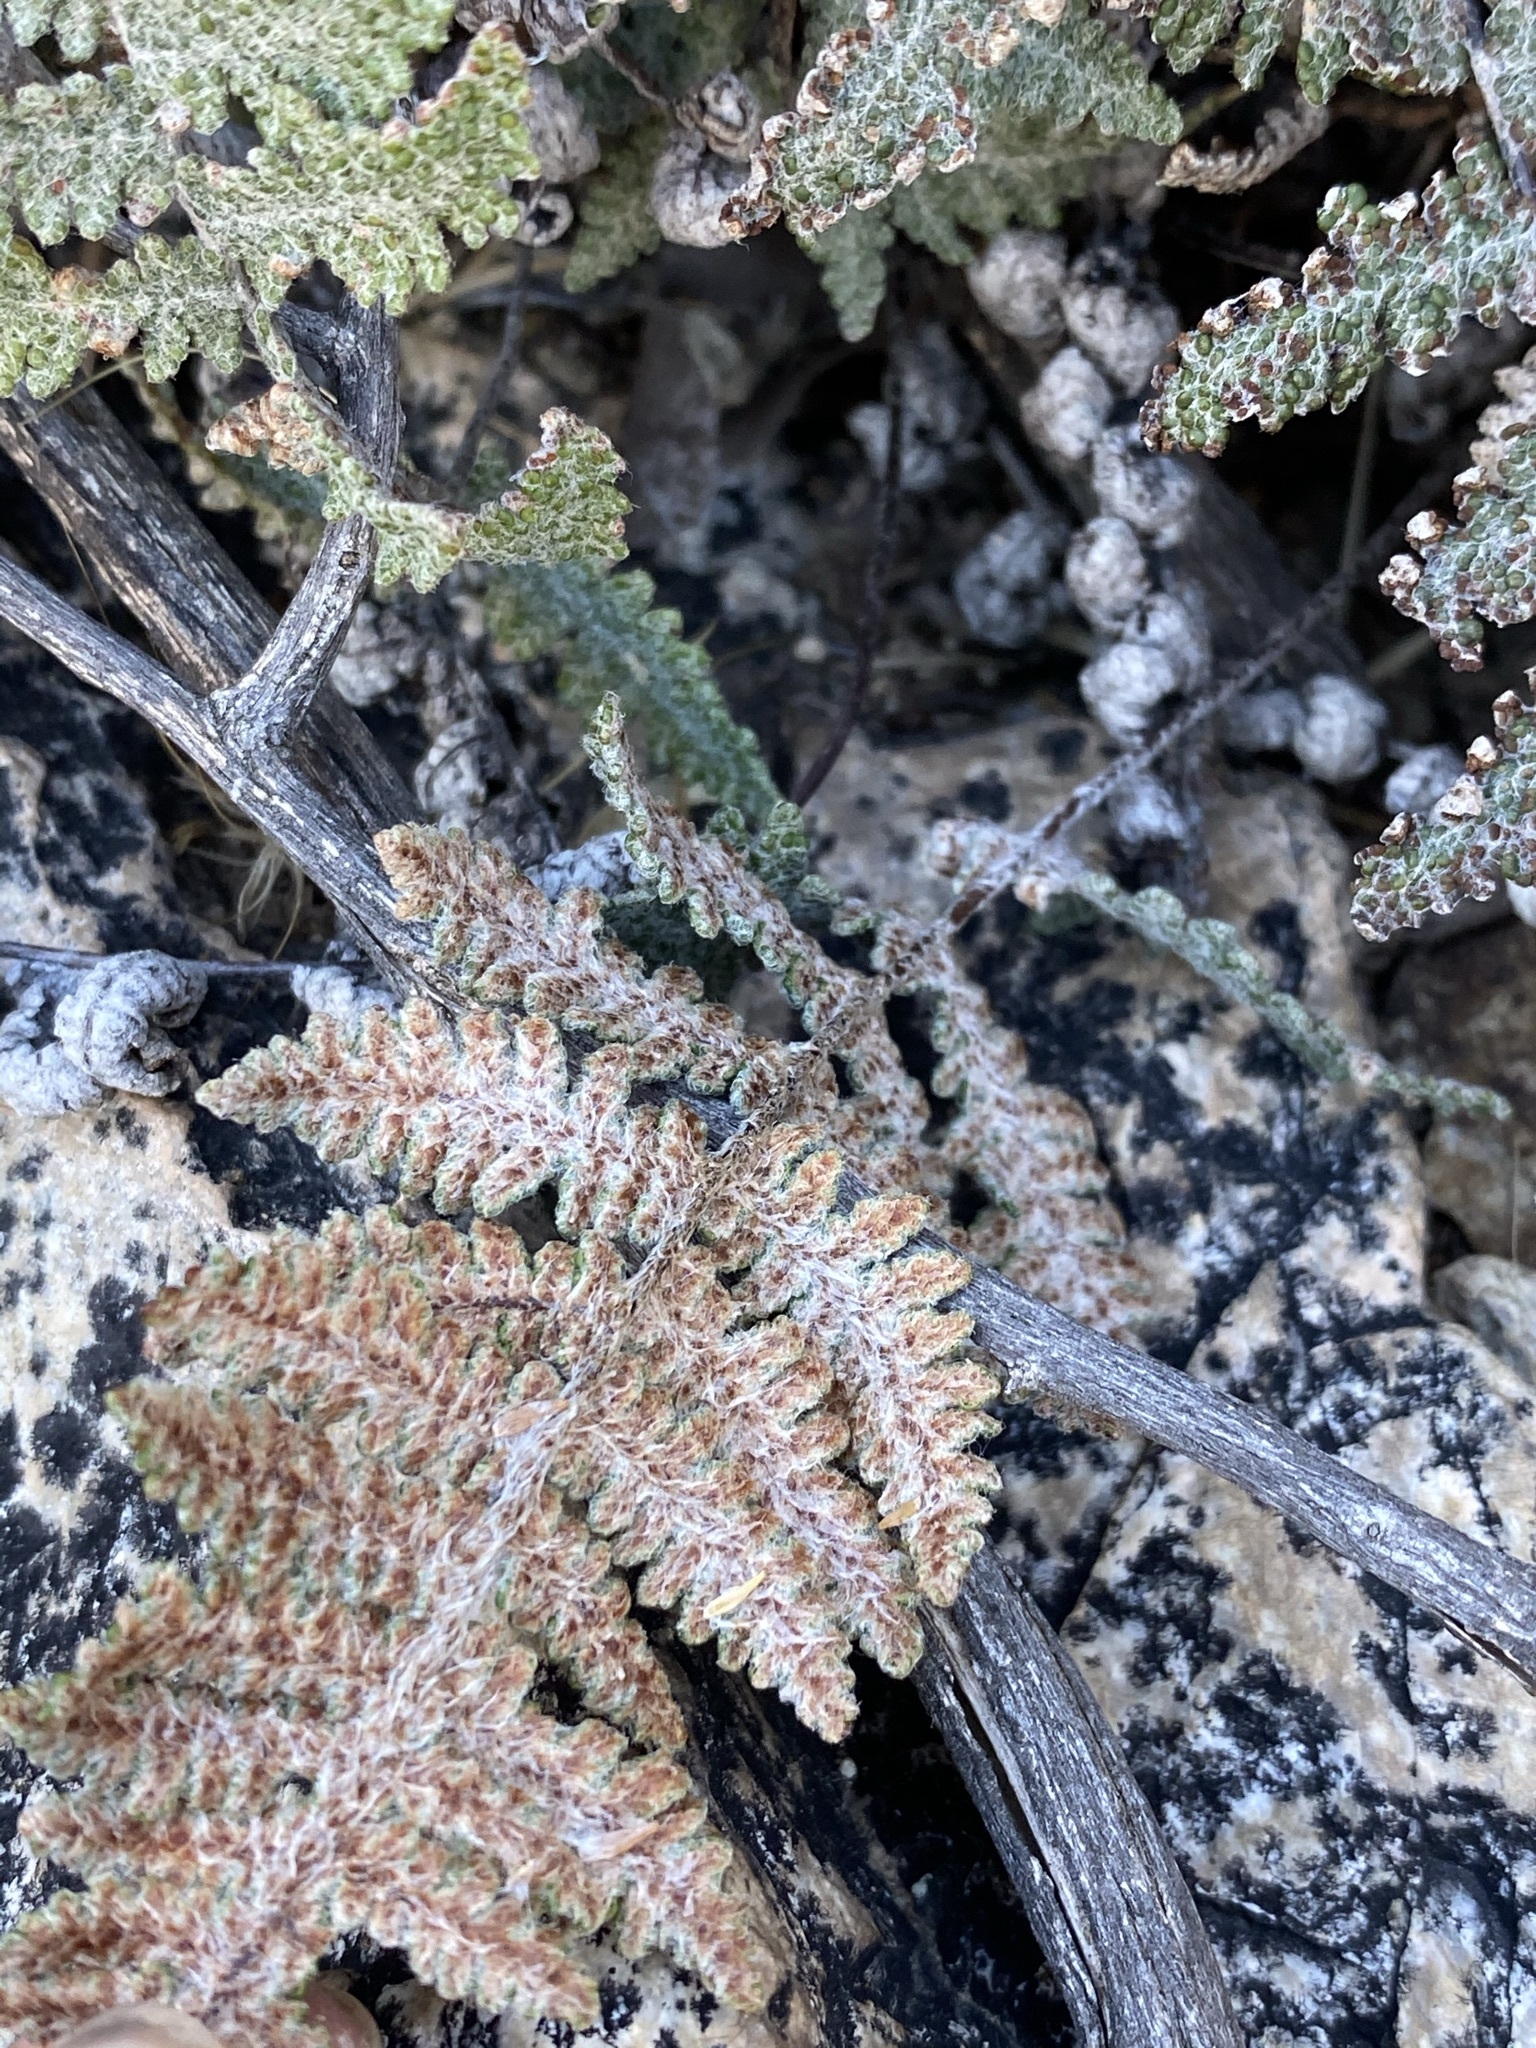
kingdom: Plantae
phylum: Tracheophyta
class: Polypodiopsida
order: Polypodiales
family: Pteridaceae
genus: Myriopteris
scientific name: Myriopteris lindheimeri
